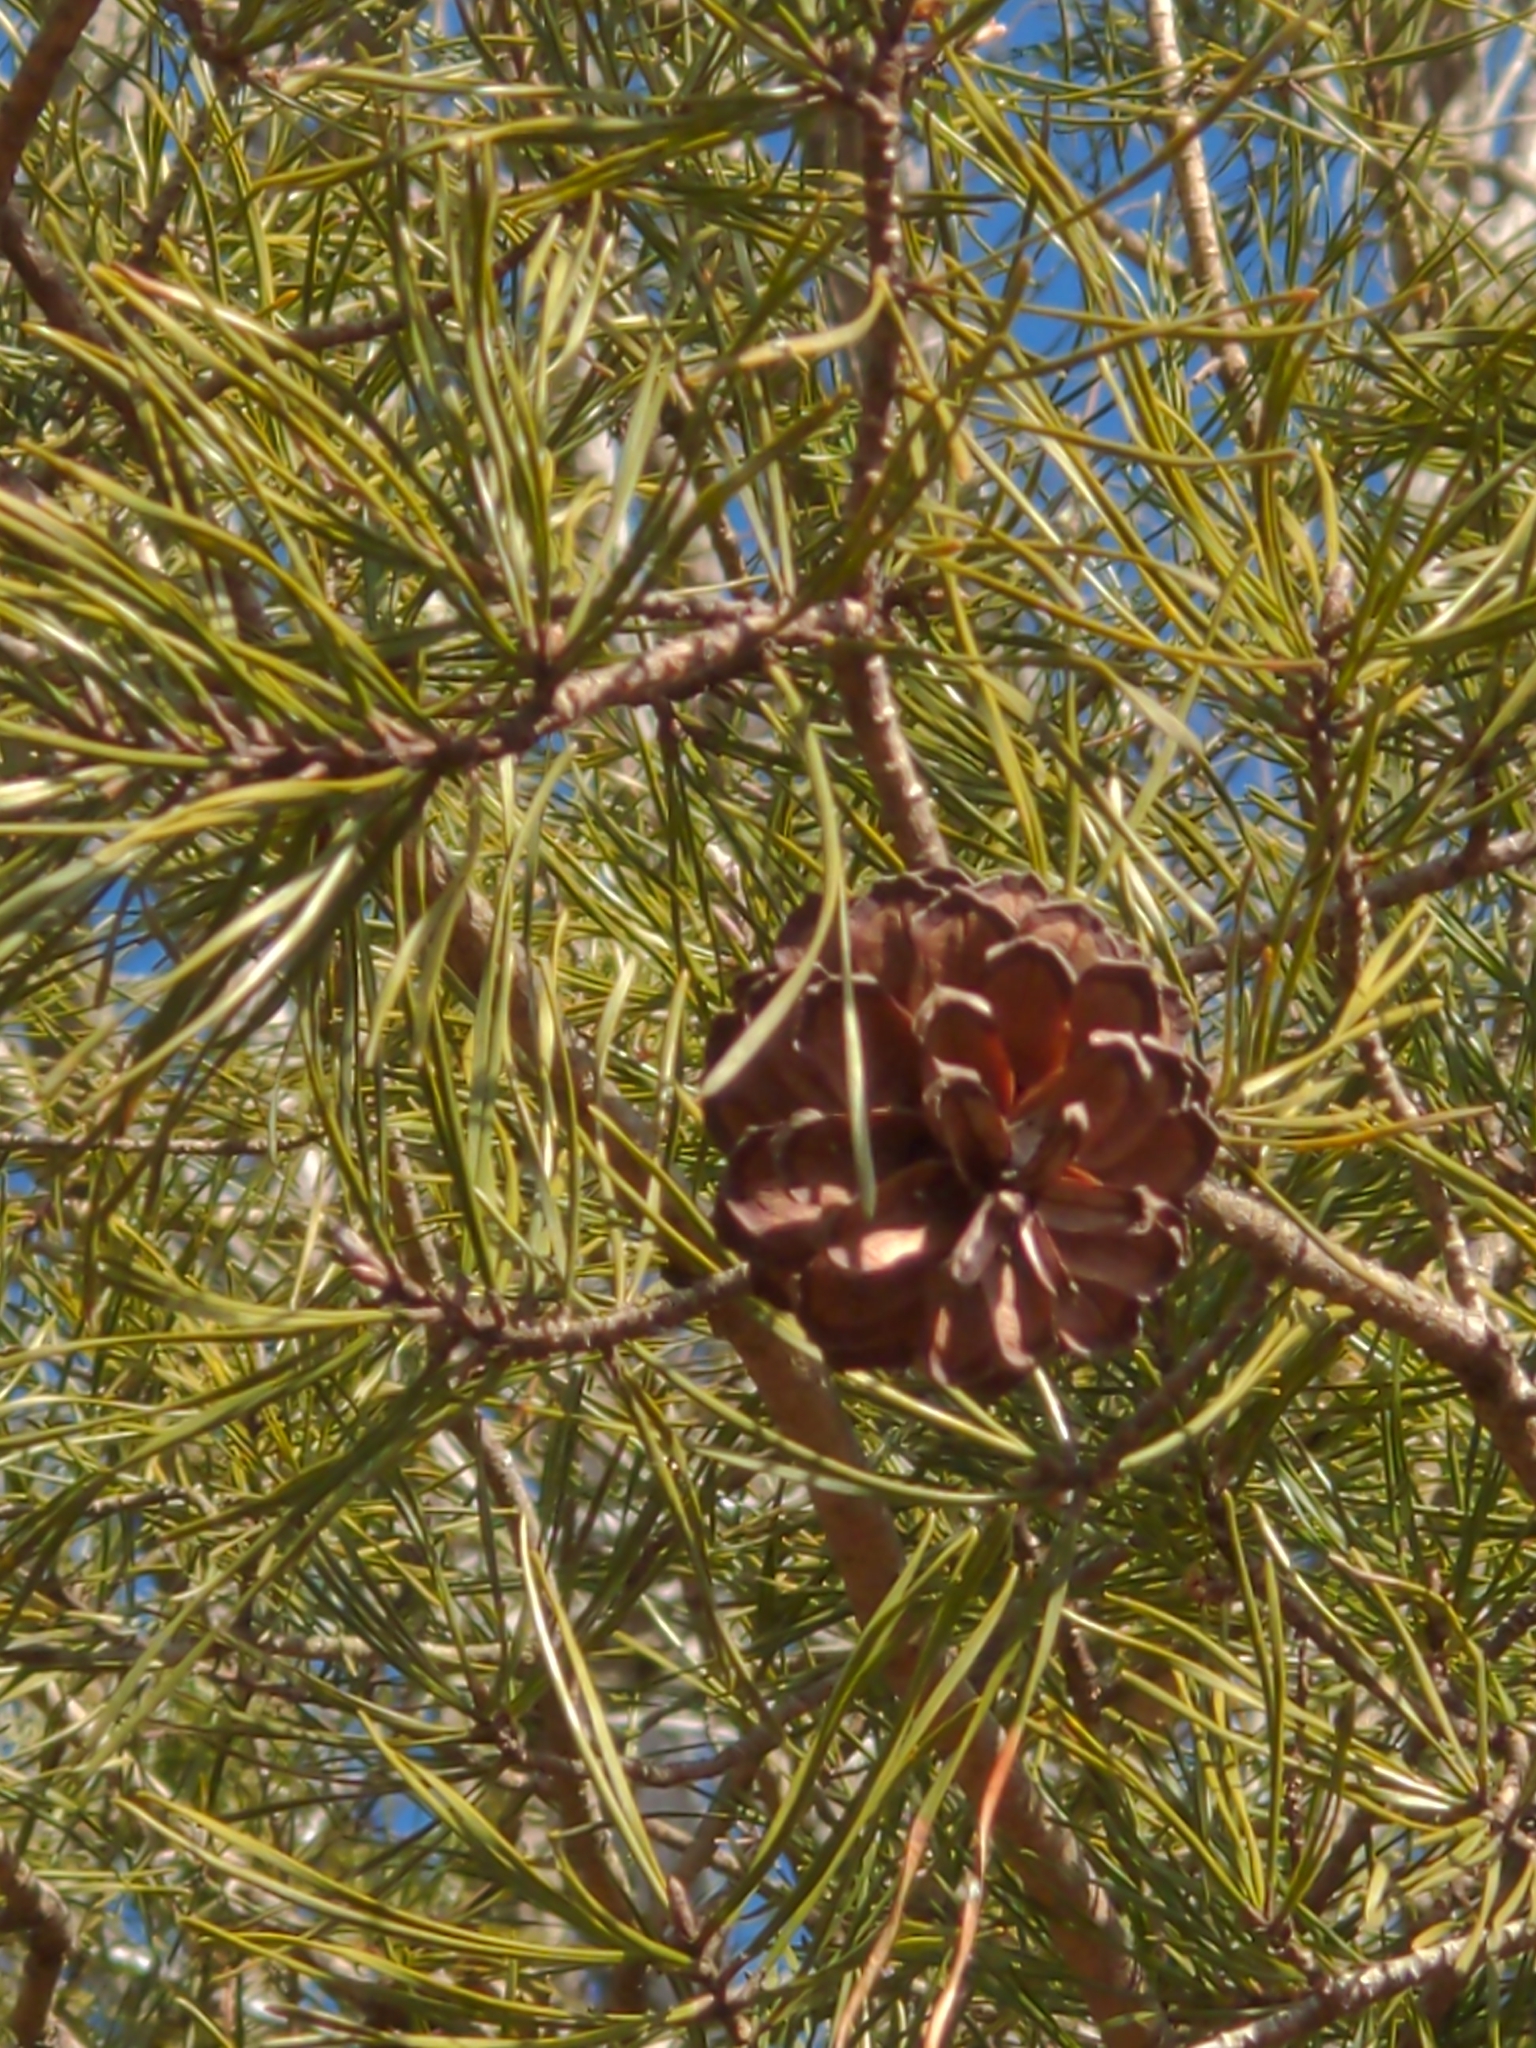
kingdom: Plantae
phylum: Tracheophyta
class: Pinopsida
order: Pinales
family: Pinaceae
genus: Pinus
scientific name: Pinus virginiana
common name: Scrub pine
